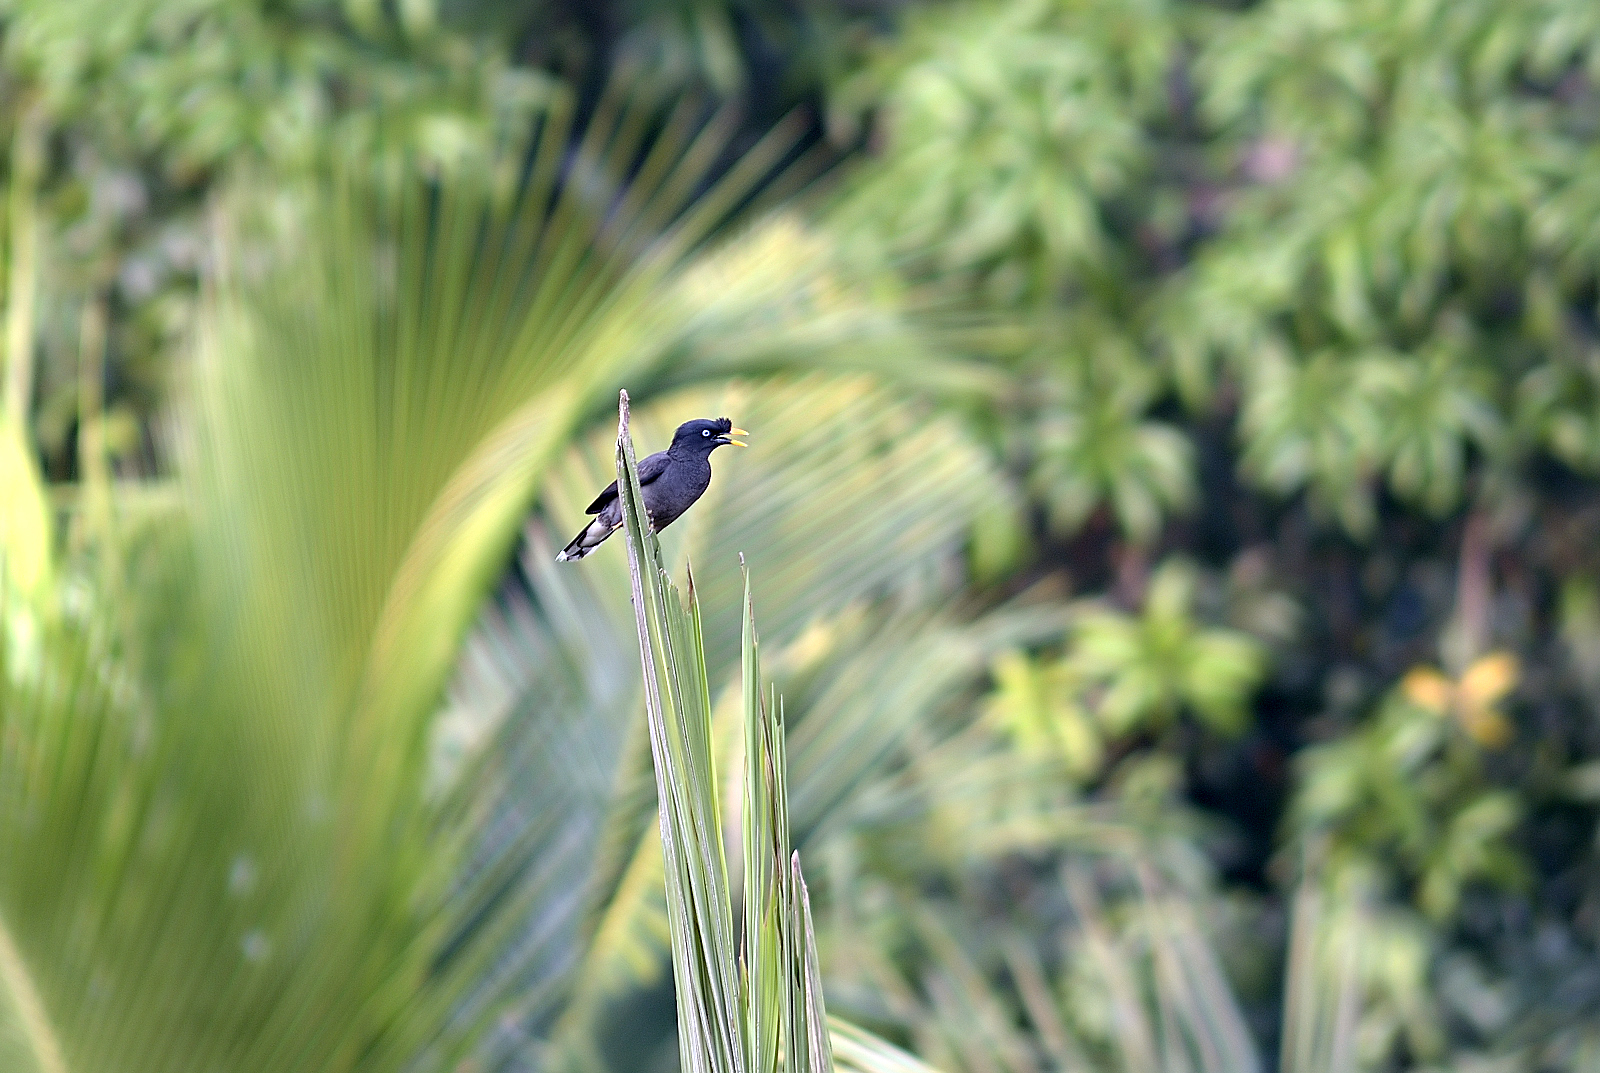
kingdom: Animalia
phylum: Chordata
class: Aves
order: Passeriformes
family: Sturnidae
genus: Acridotheres
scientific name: Acridotheres fuscus
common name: Jungle myna
